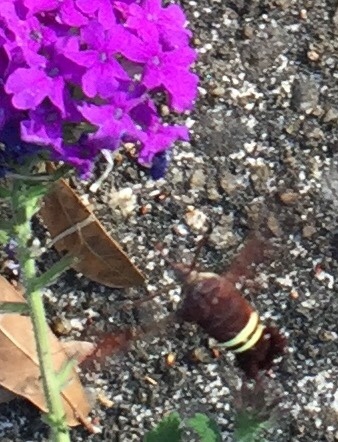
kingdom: Animalia
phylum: Arthropoda
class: Insecta
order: Lepidoptera
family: Sphingidae
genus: Amphion
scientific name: Amphion floridensis
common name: Nessus sphinx
